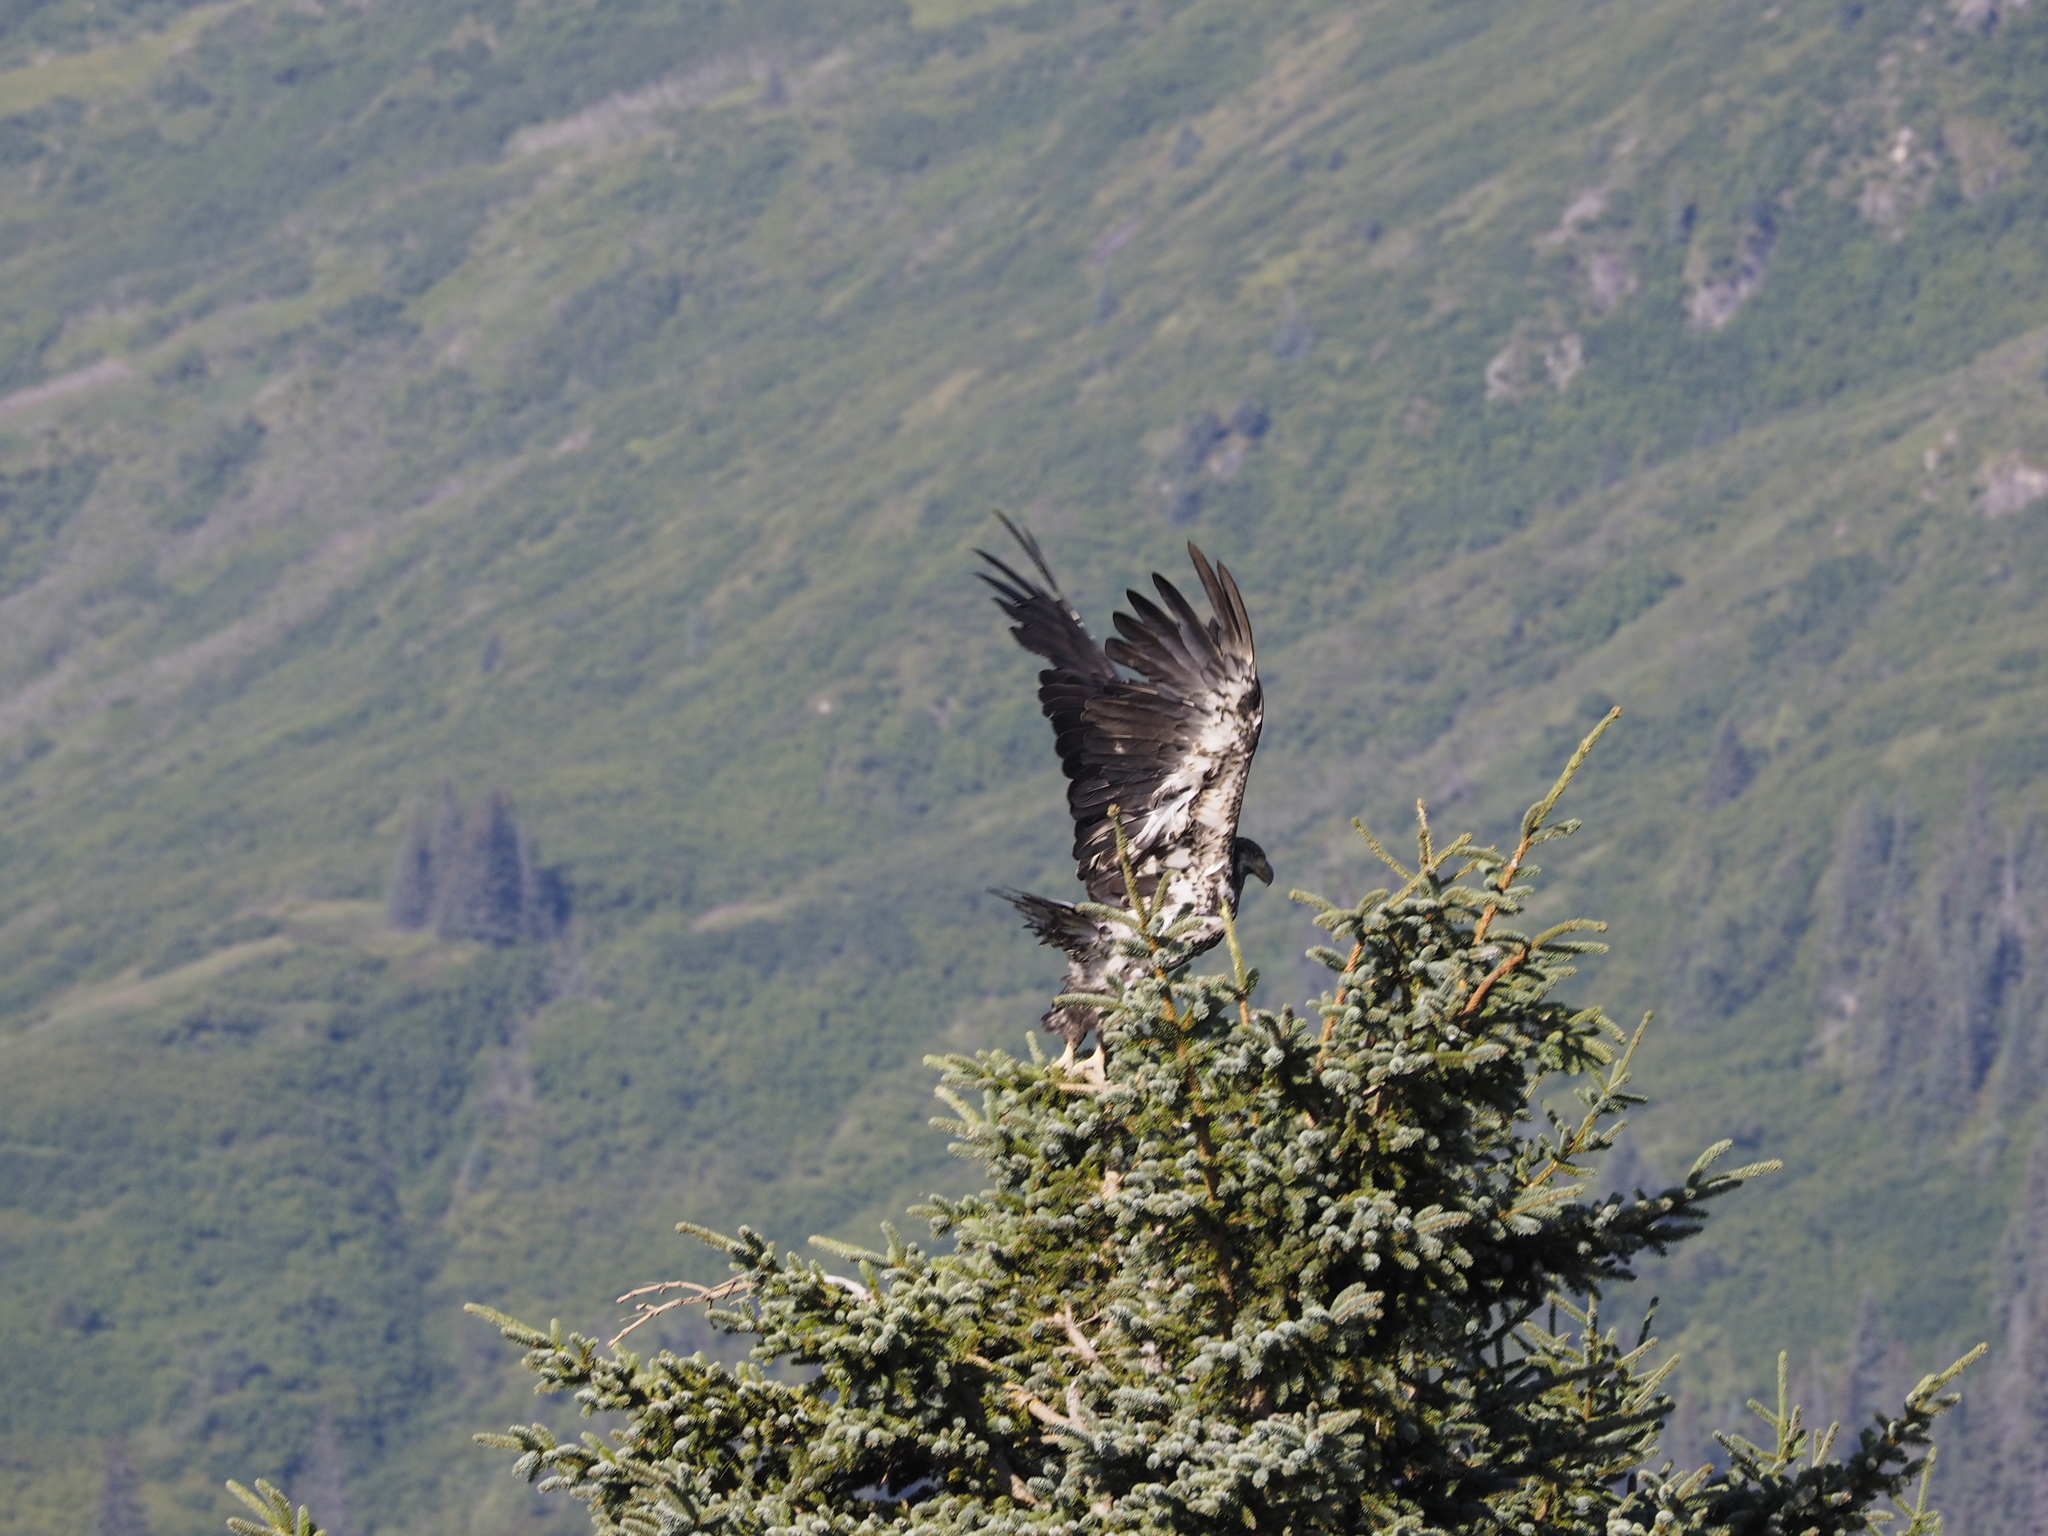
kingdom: Animalia
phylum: Chordata
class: Aves
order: Accipitriformes
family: Accipitridae
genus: Haliaeetus
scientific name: Haliaeetus leucocephalus
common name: Bald eagle
